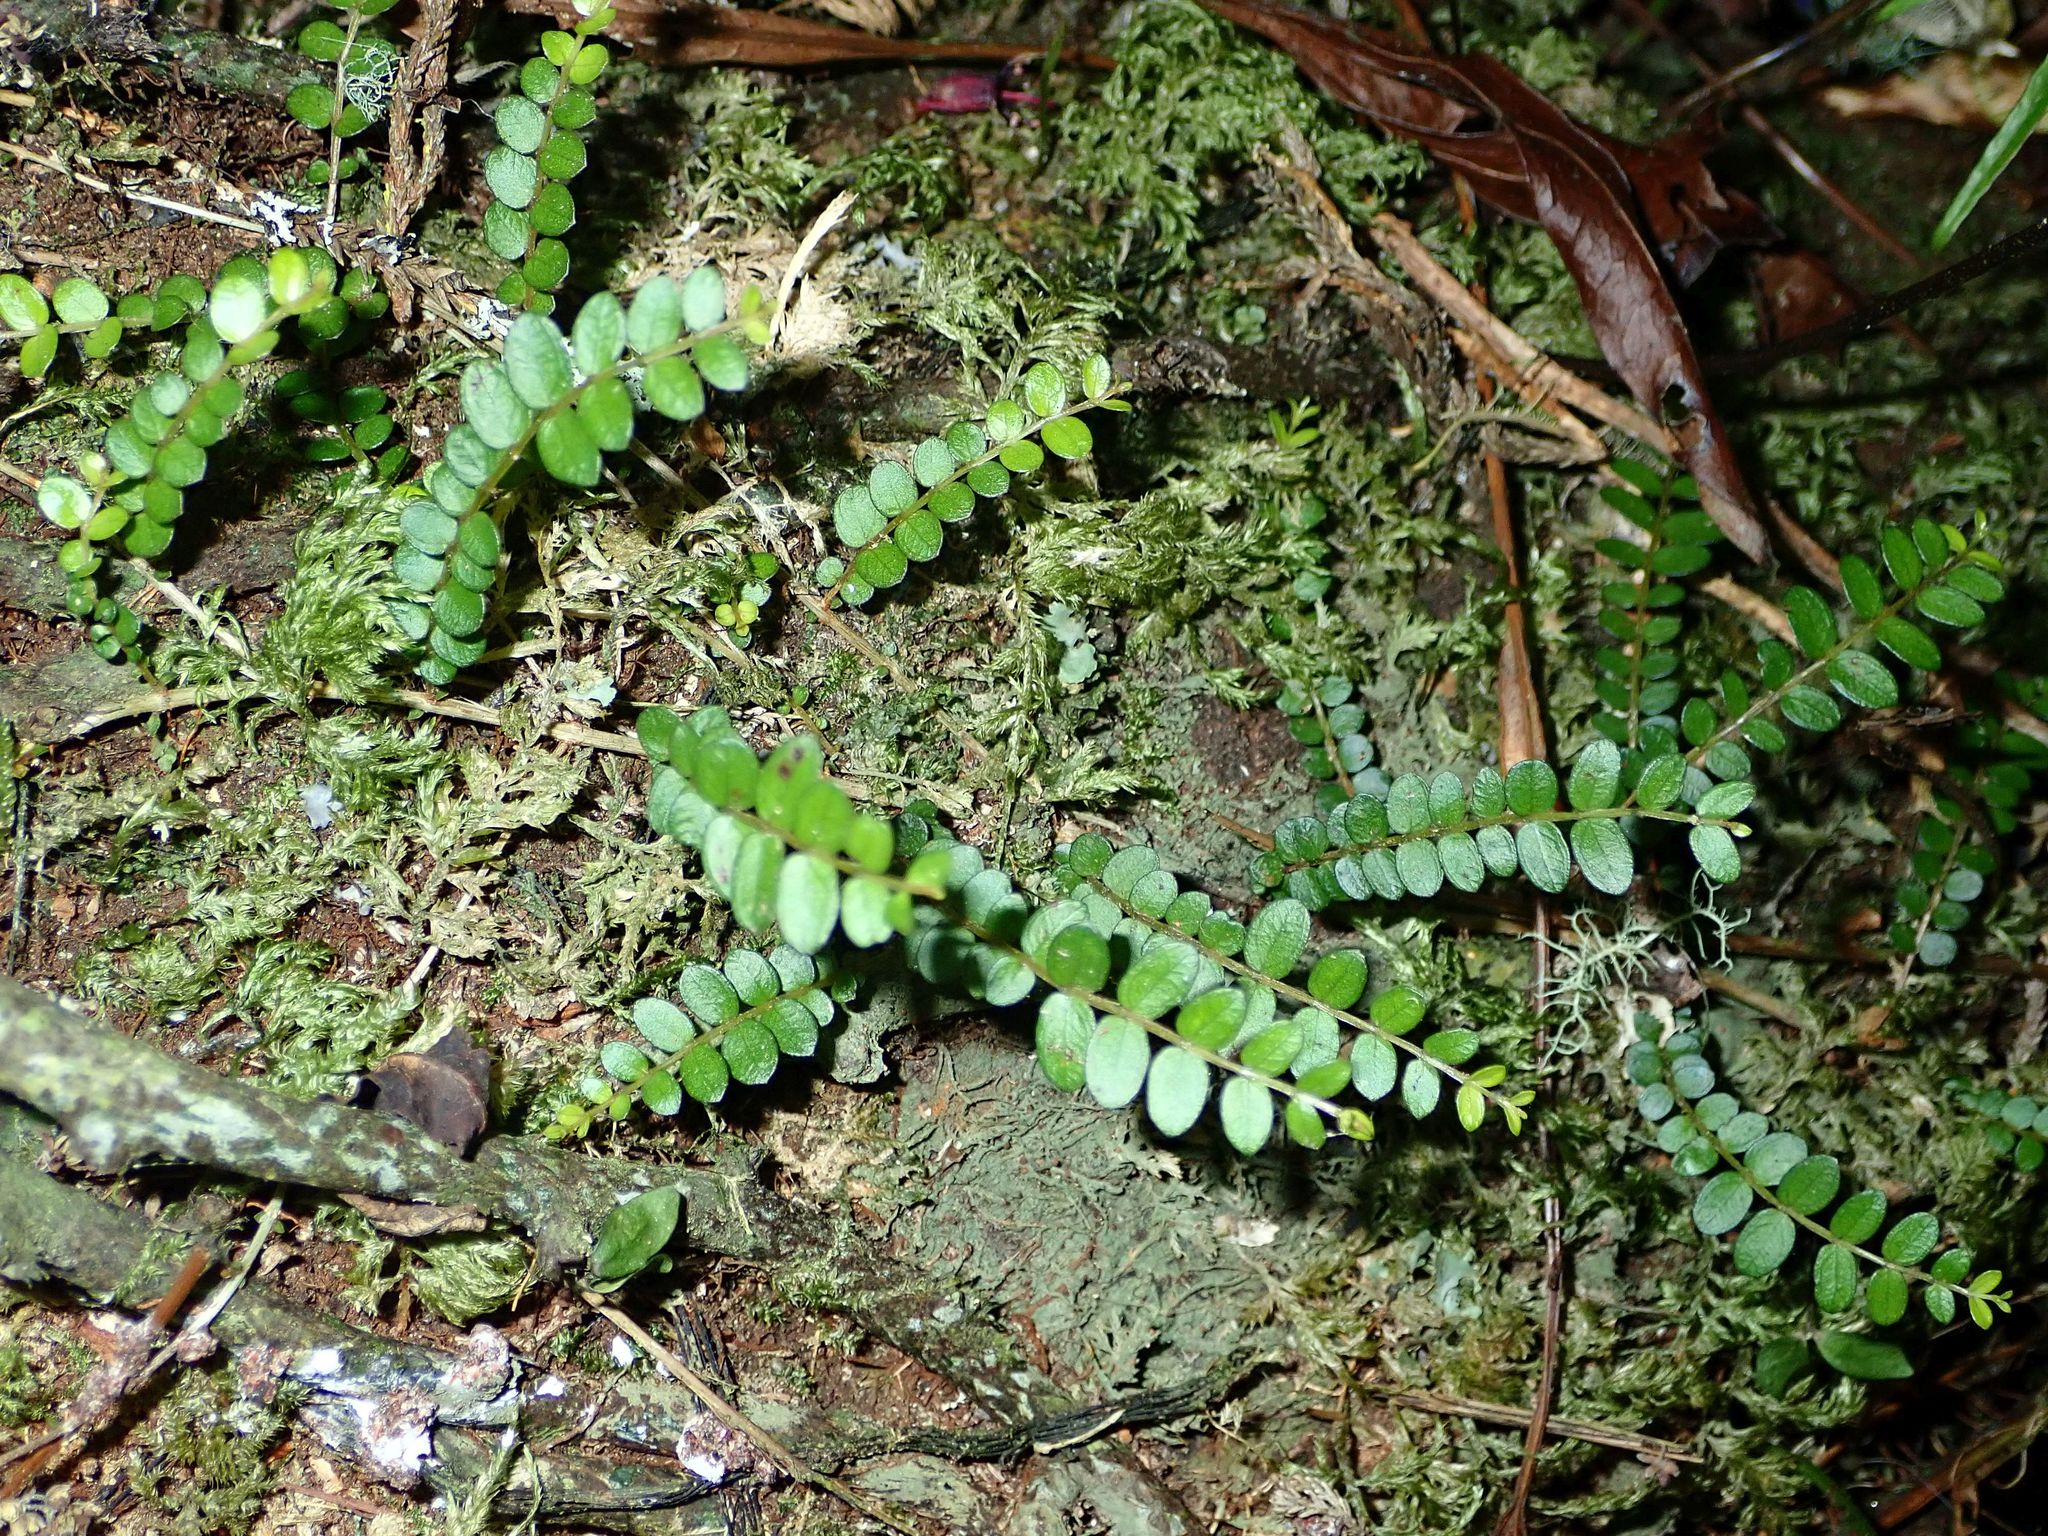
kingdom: Plantae
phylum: Tracheophyta
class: Magnoliopsida
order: Myrtales
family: Myrtaceae
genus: Metrosideros
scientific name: Metrosideros diffusa
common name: Small ratavine
